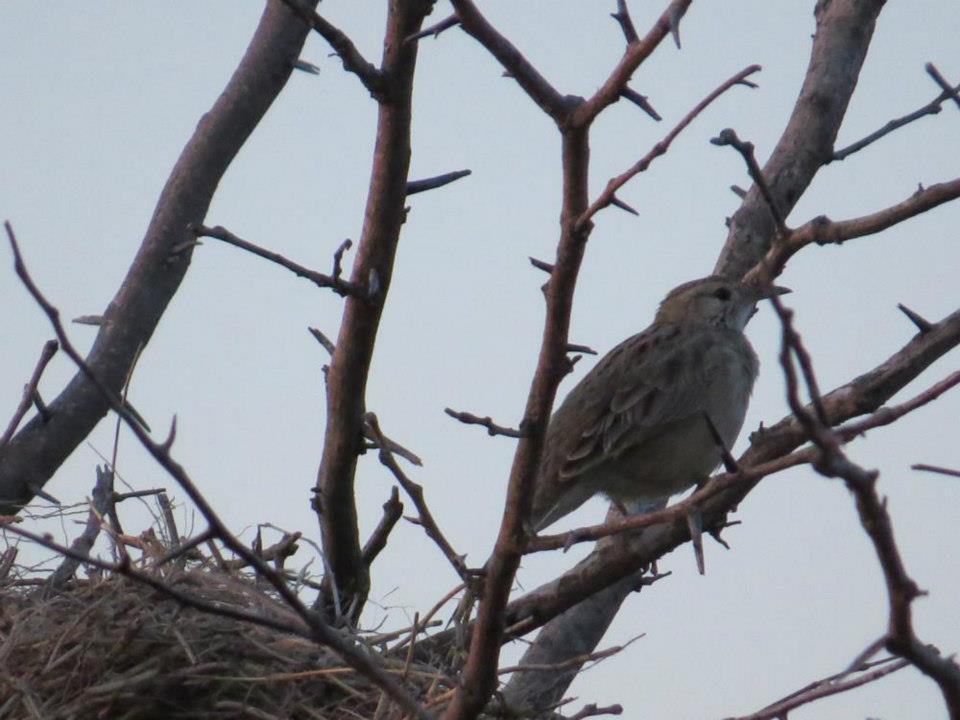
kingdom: Animalia
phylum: Chordata
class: Aves
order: Passeriformes
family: Furnariidae
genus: Anumbius
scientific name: Anumbius annumbi
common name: Firewood-gatherer
